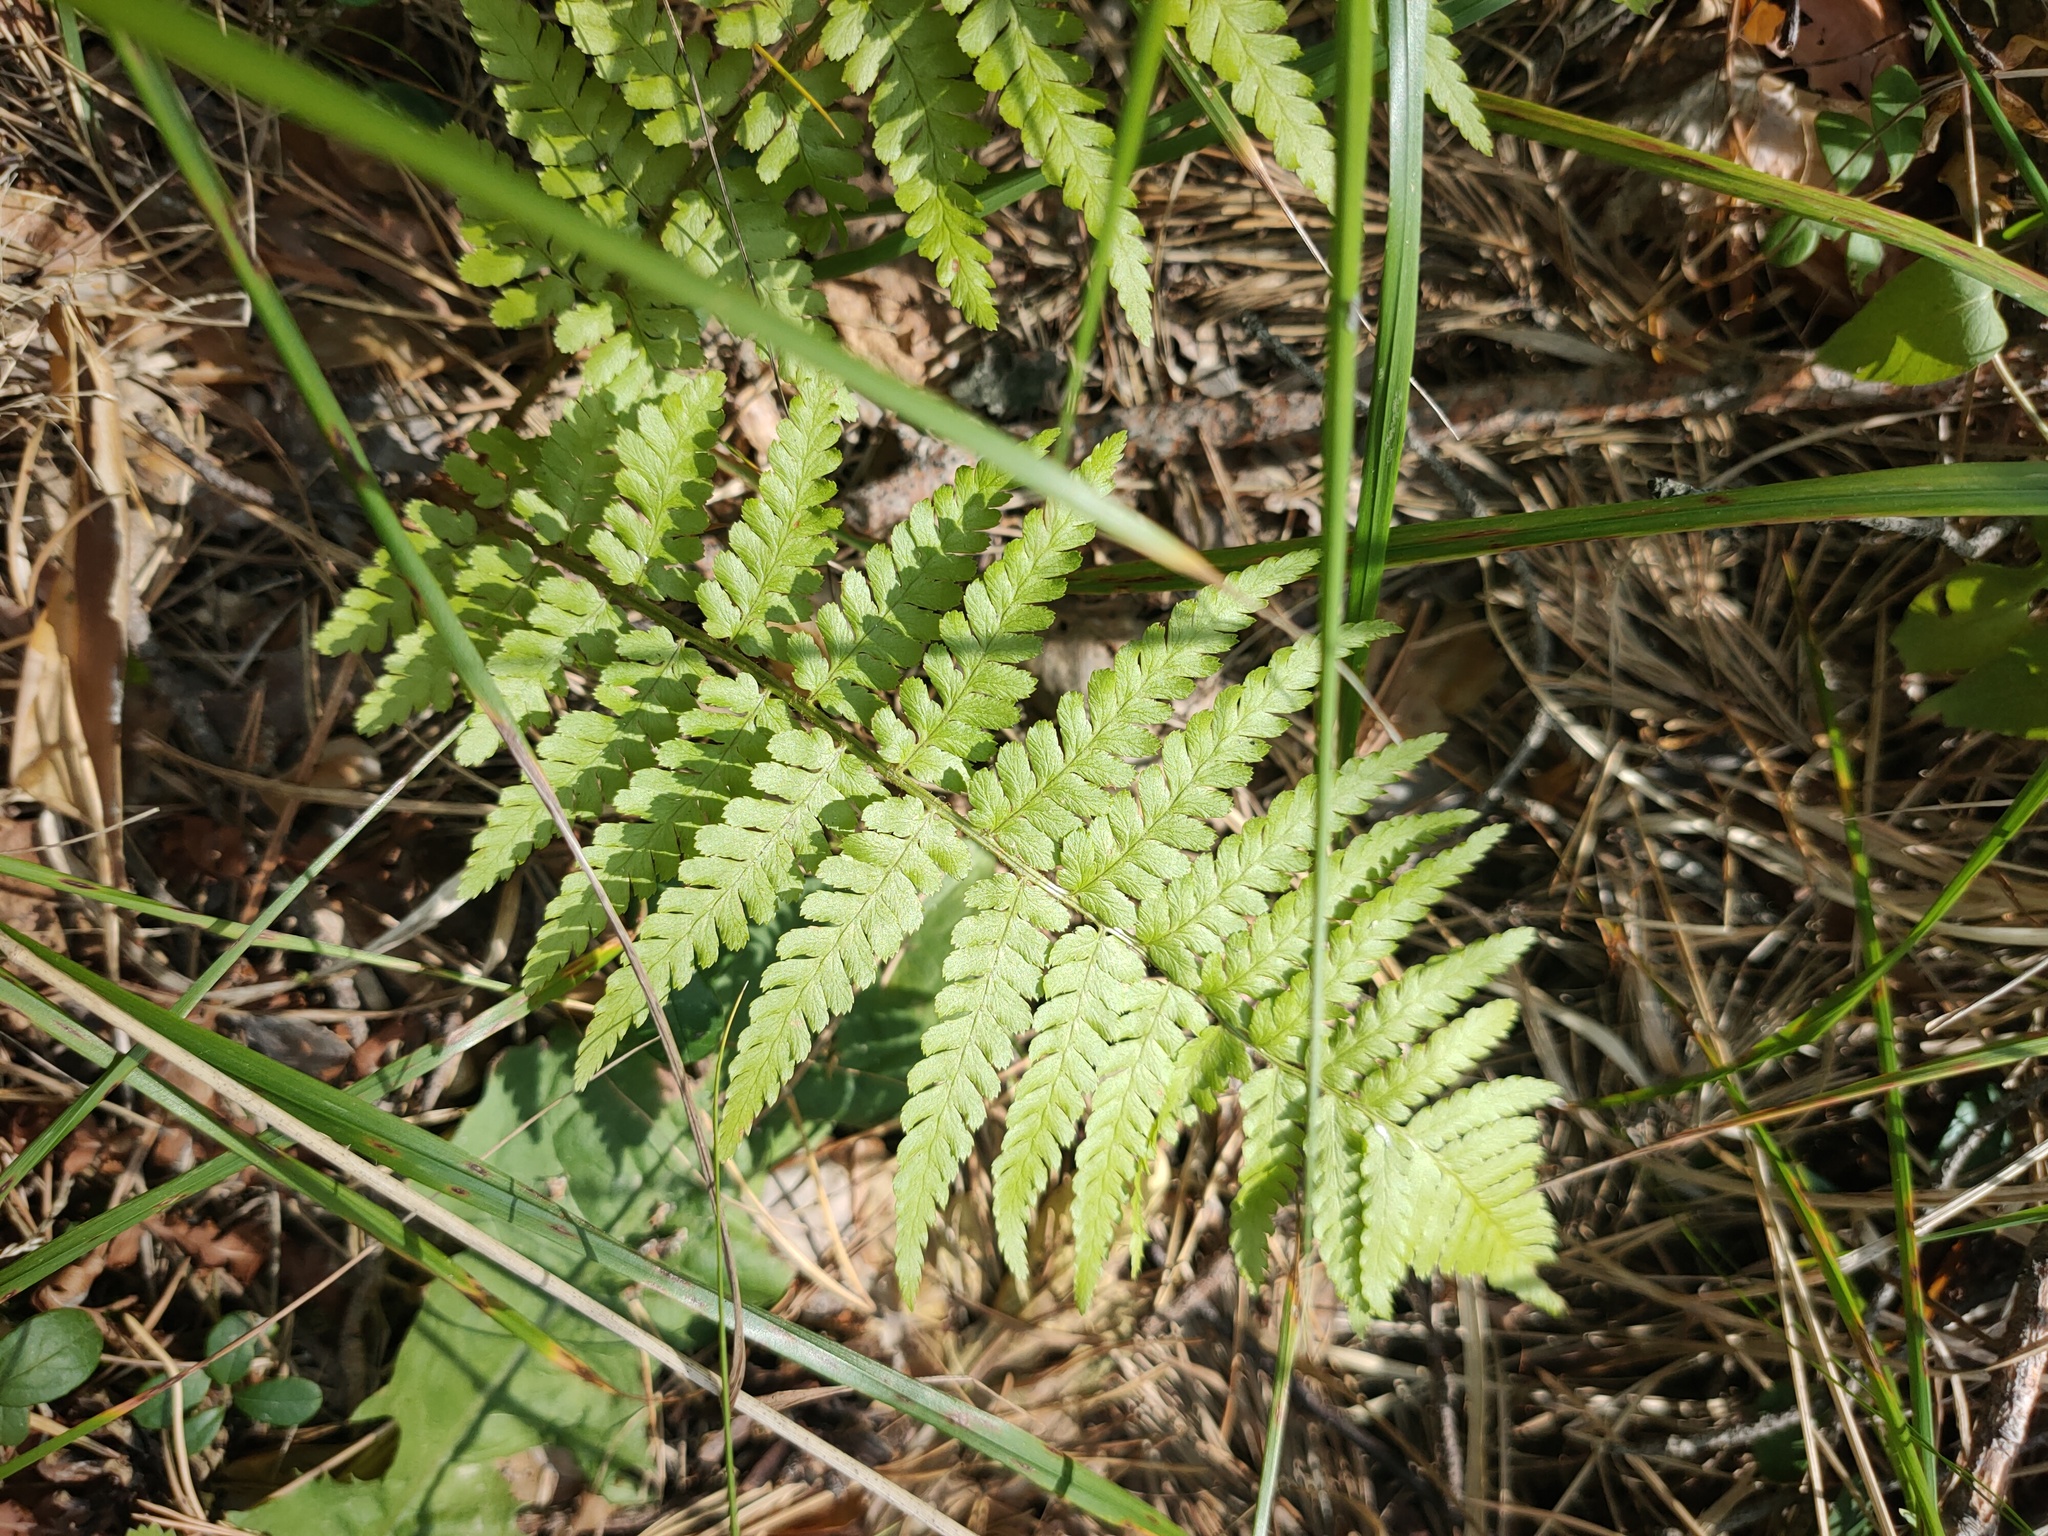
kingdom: Plantae
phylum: Tracheophyta
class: Polypodiopsida
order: Polypodiales
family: Dryopteridaceae
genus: Dryopteris
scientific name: Dryopteris filix-mas
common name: Male fern
